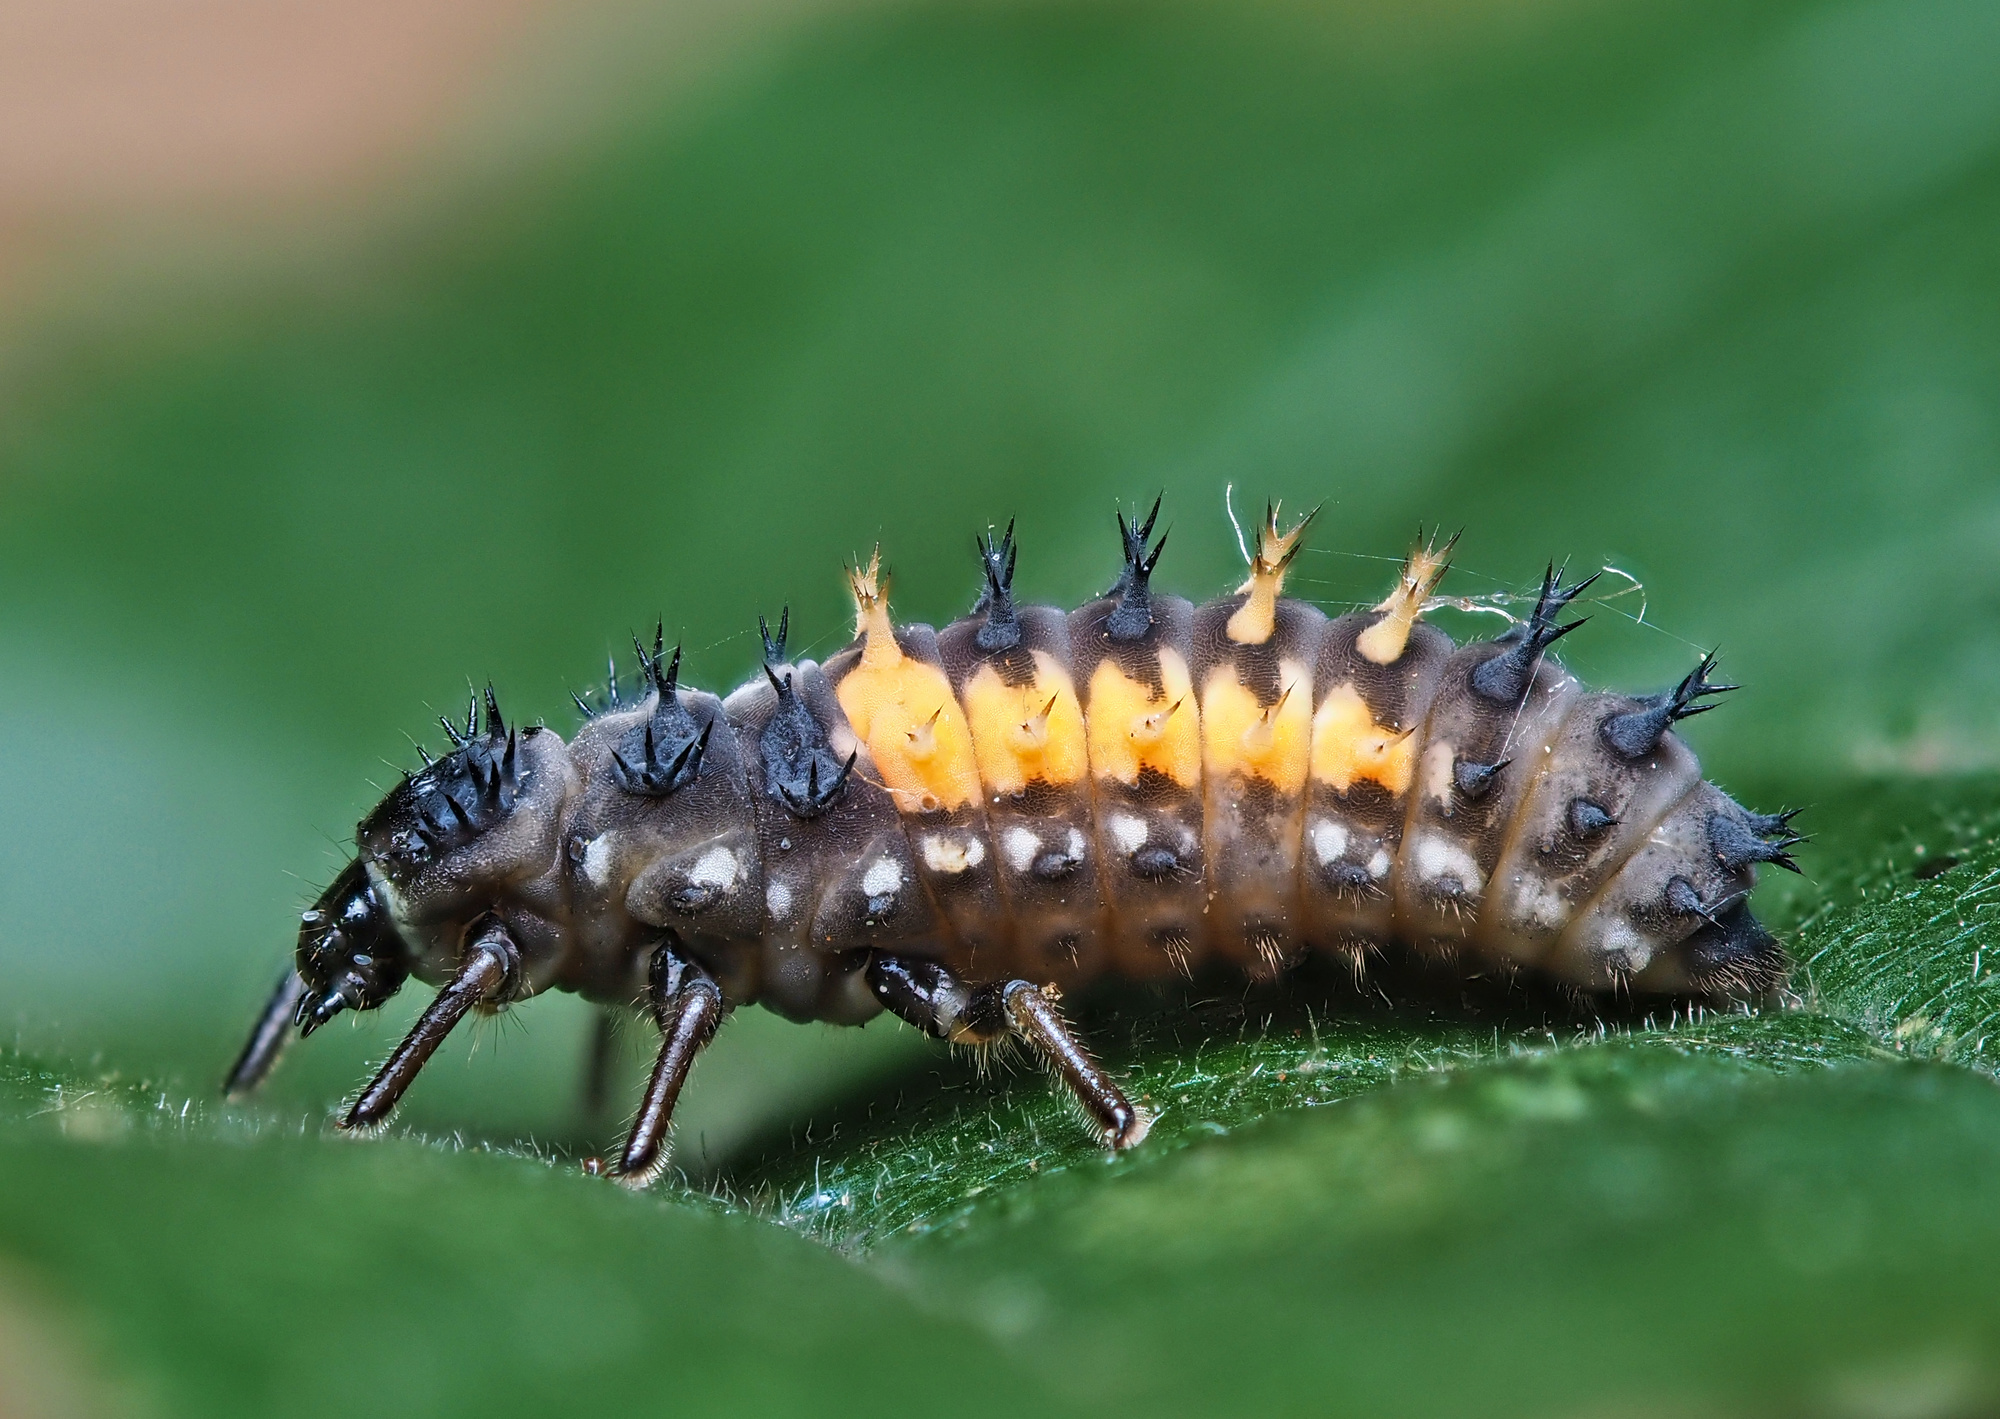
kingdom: Animalia
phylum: Arthropoda
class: Insecta
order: Coleoptera
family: Coccinellidae
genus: Harmonia
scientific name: Harmonia axyridis
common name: Harlequin ladybird
